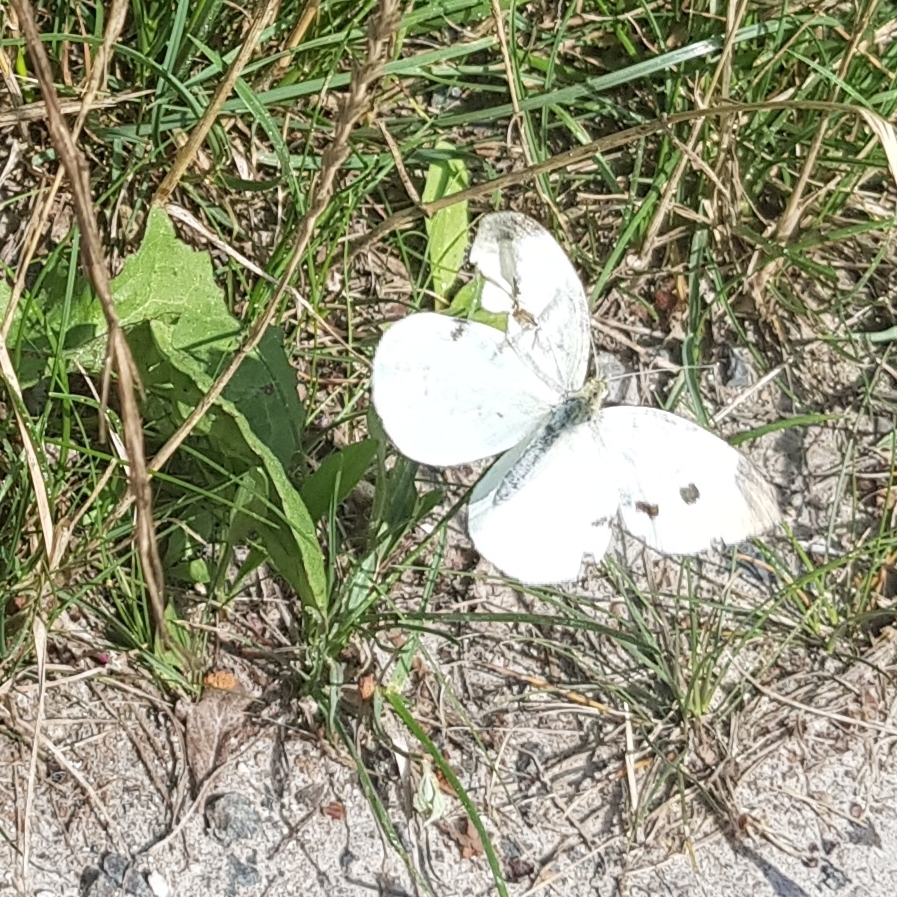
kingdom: Animalia
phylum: Arthropoda
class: Insecta
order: Lepidoptera
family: Pieridae
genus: Pieris
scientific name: Pieris rapae
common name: Small white
